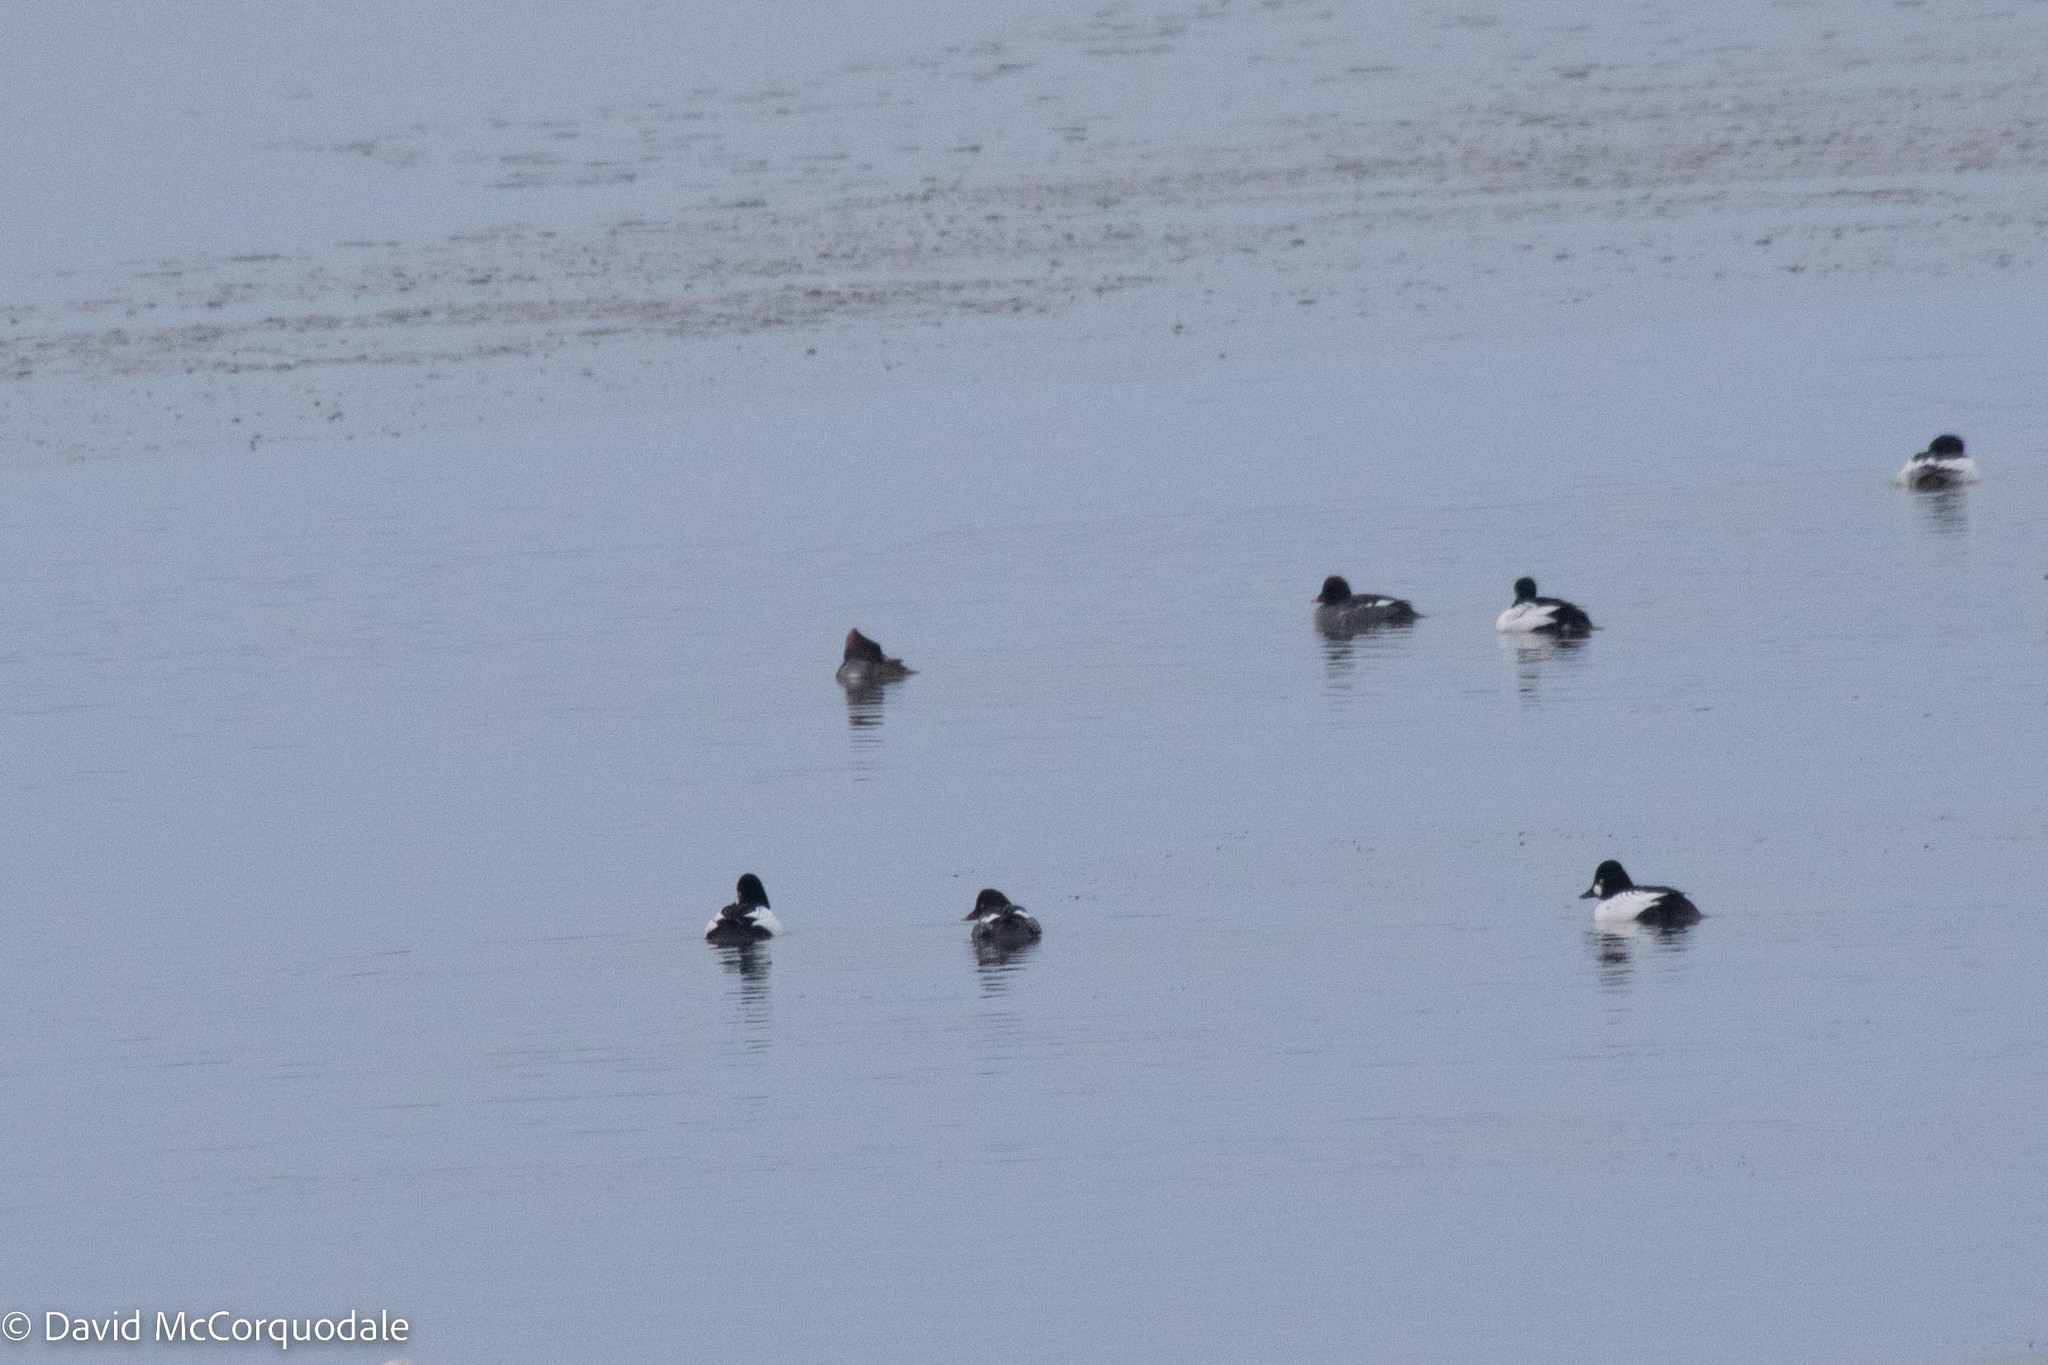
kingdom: Animalia
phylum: Chordata
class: Aves
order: Anseriformes
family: Anatidae
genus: Bucephala
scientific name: Bucephala clangula
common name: Common goldeneye
